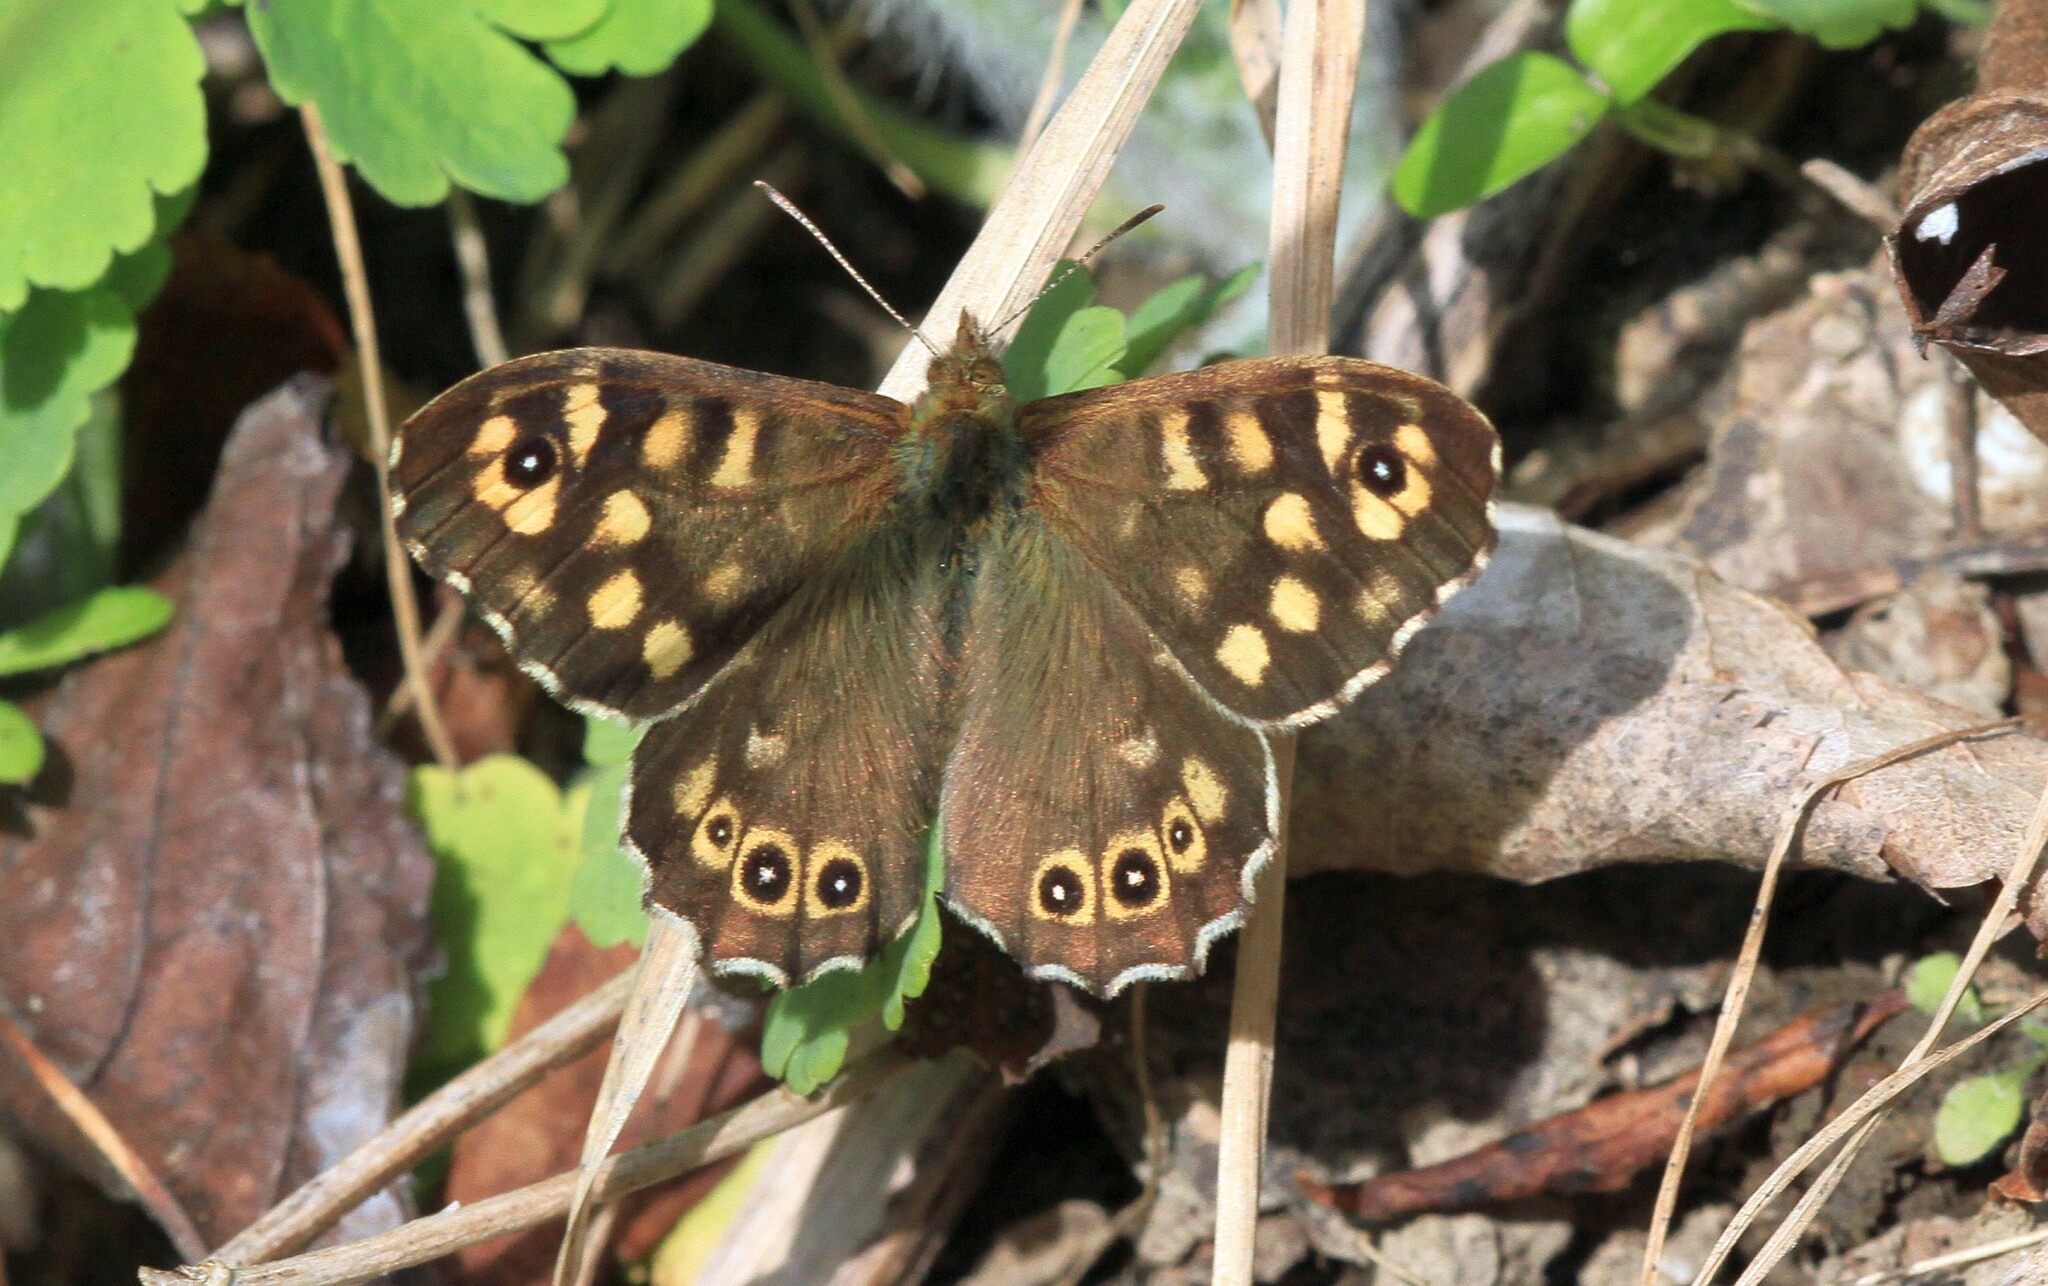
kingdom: Animalia
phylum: Arthropoda
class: Insecta
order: Lepidoptera
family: Nymphalidae
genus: Pararge
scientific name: Pararge aegeria
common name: Speckled wood
